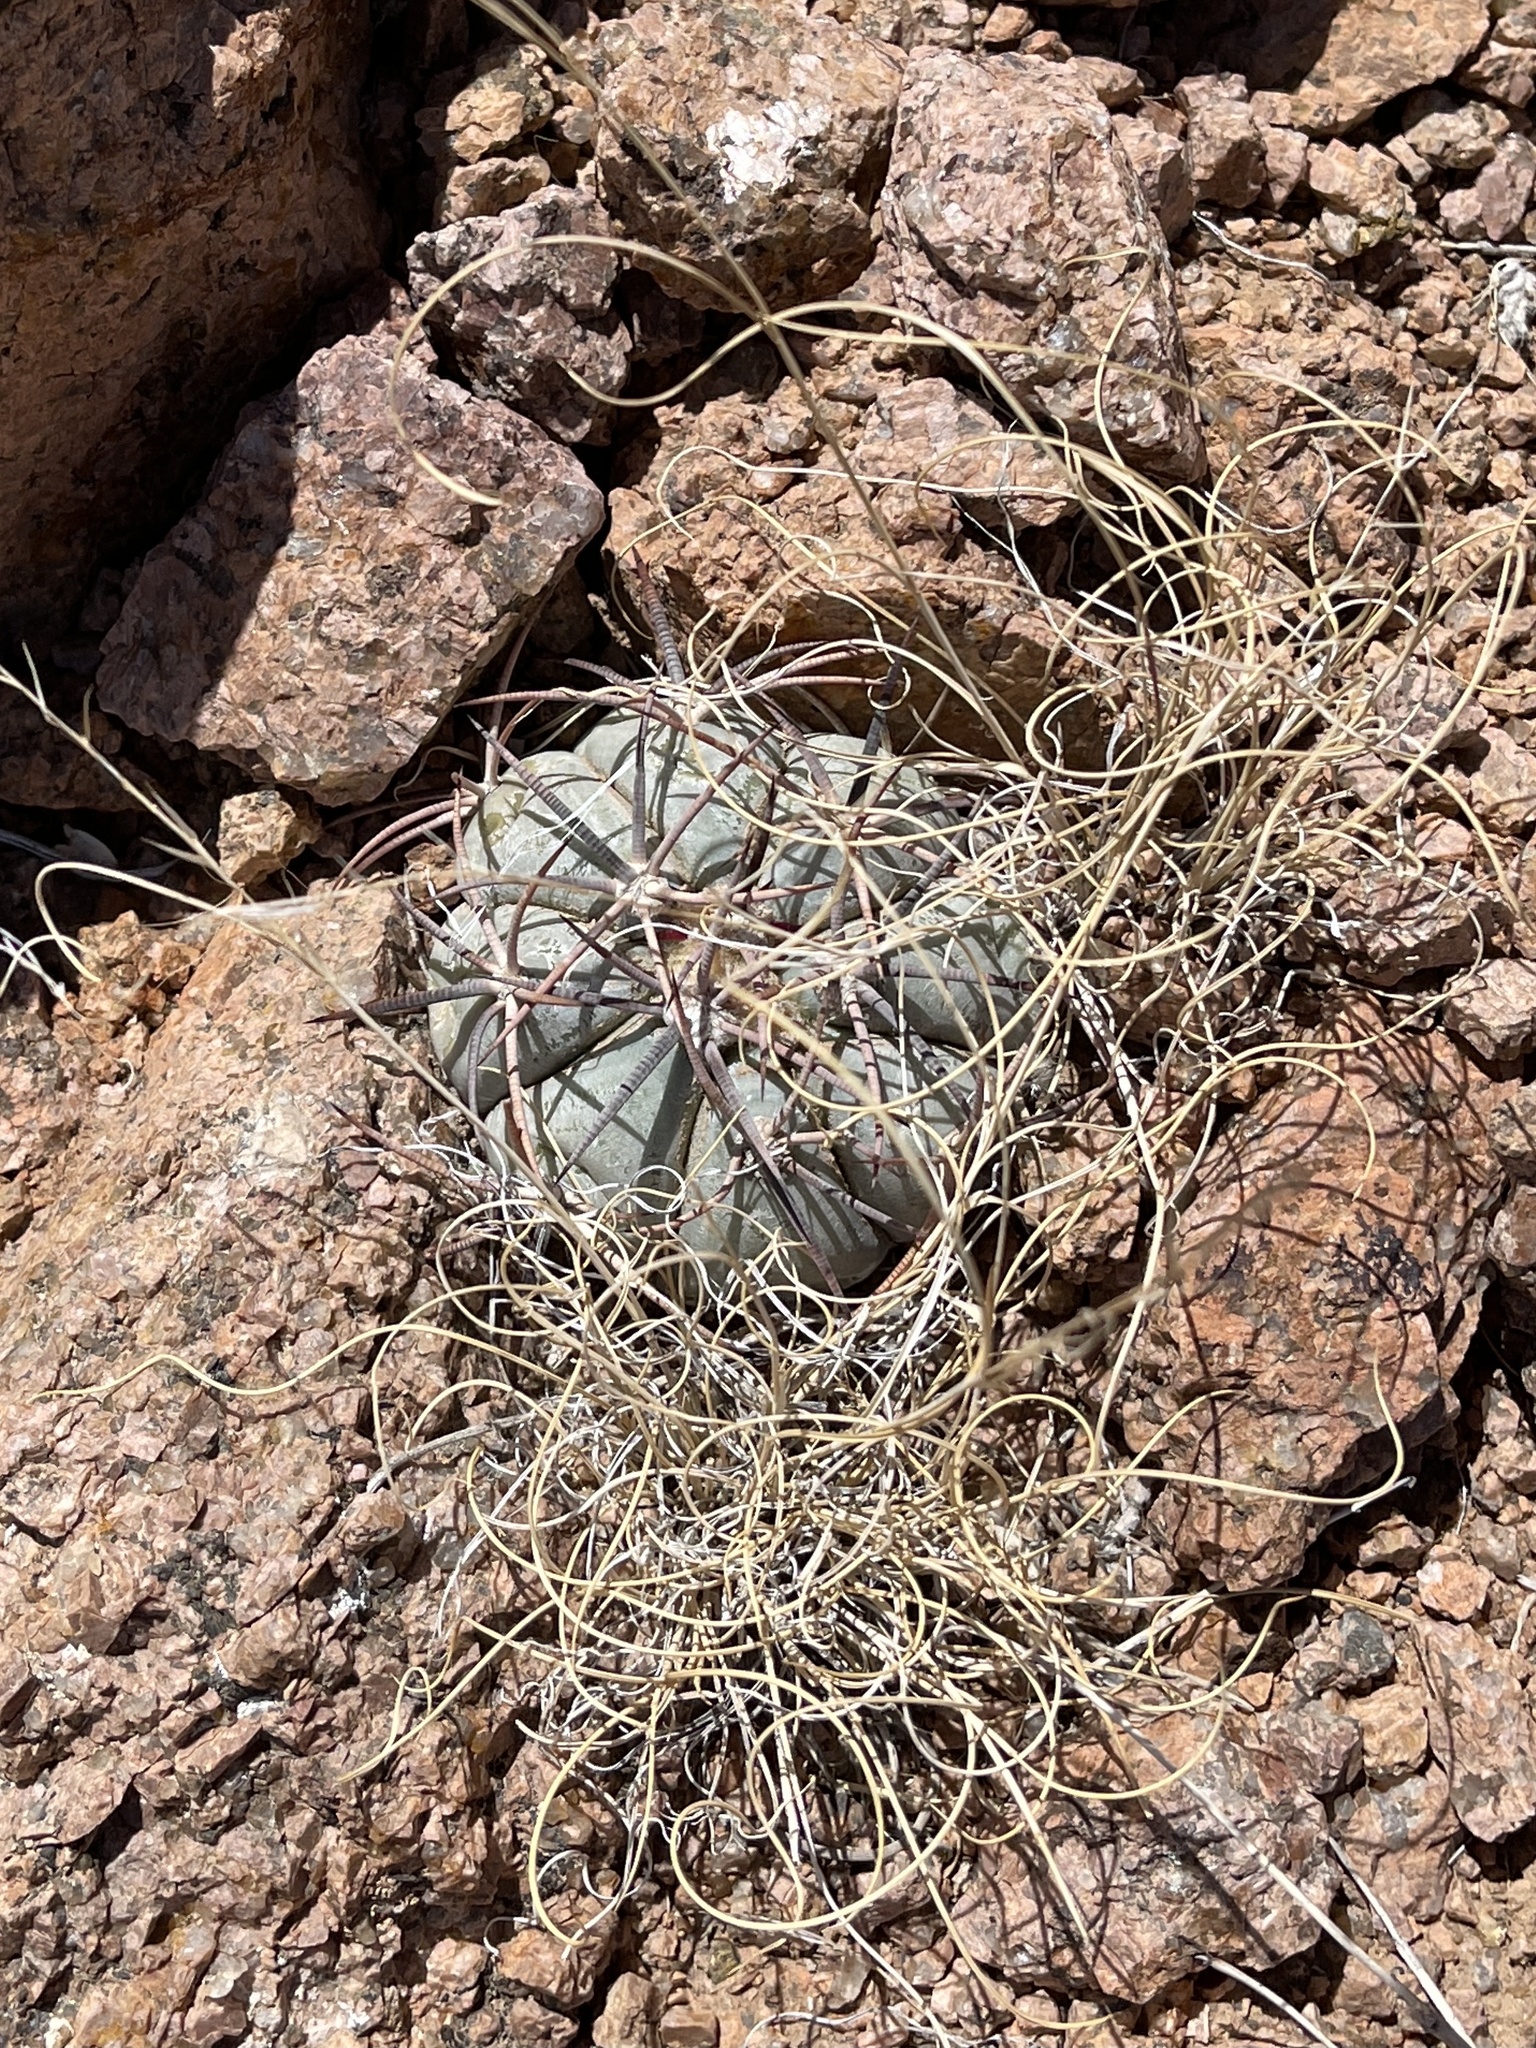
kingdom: Plantae
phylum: Tracheophyta
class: Magnoliopsida
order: Caryophyllales
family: Cactaceae
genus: Echinocactus
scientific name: Echinocactus horizonthalonius
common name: Devilshead
